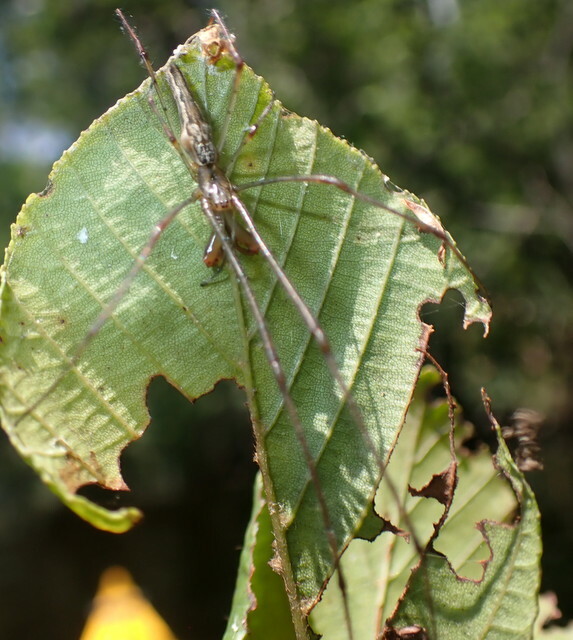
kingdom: Animalia
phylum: Arthropoda
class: Arachnida
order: Araneae
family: Tetragnathidae
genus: Tetragnatha
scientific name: Tetragnatha
